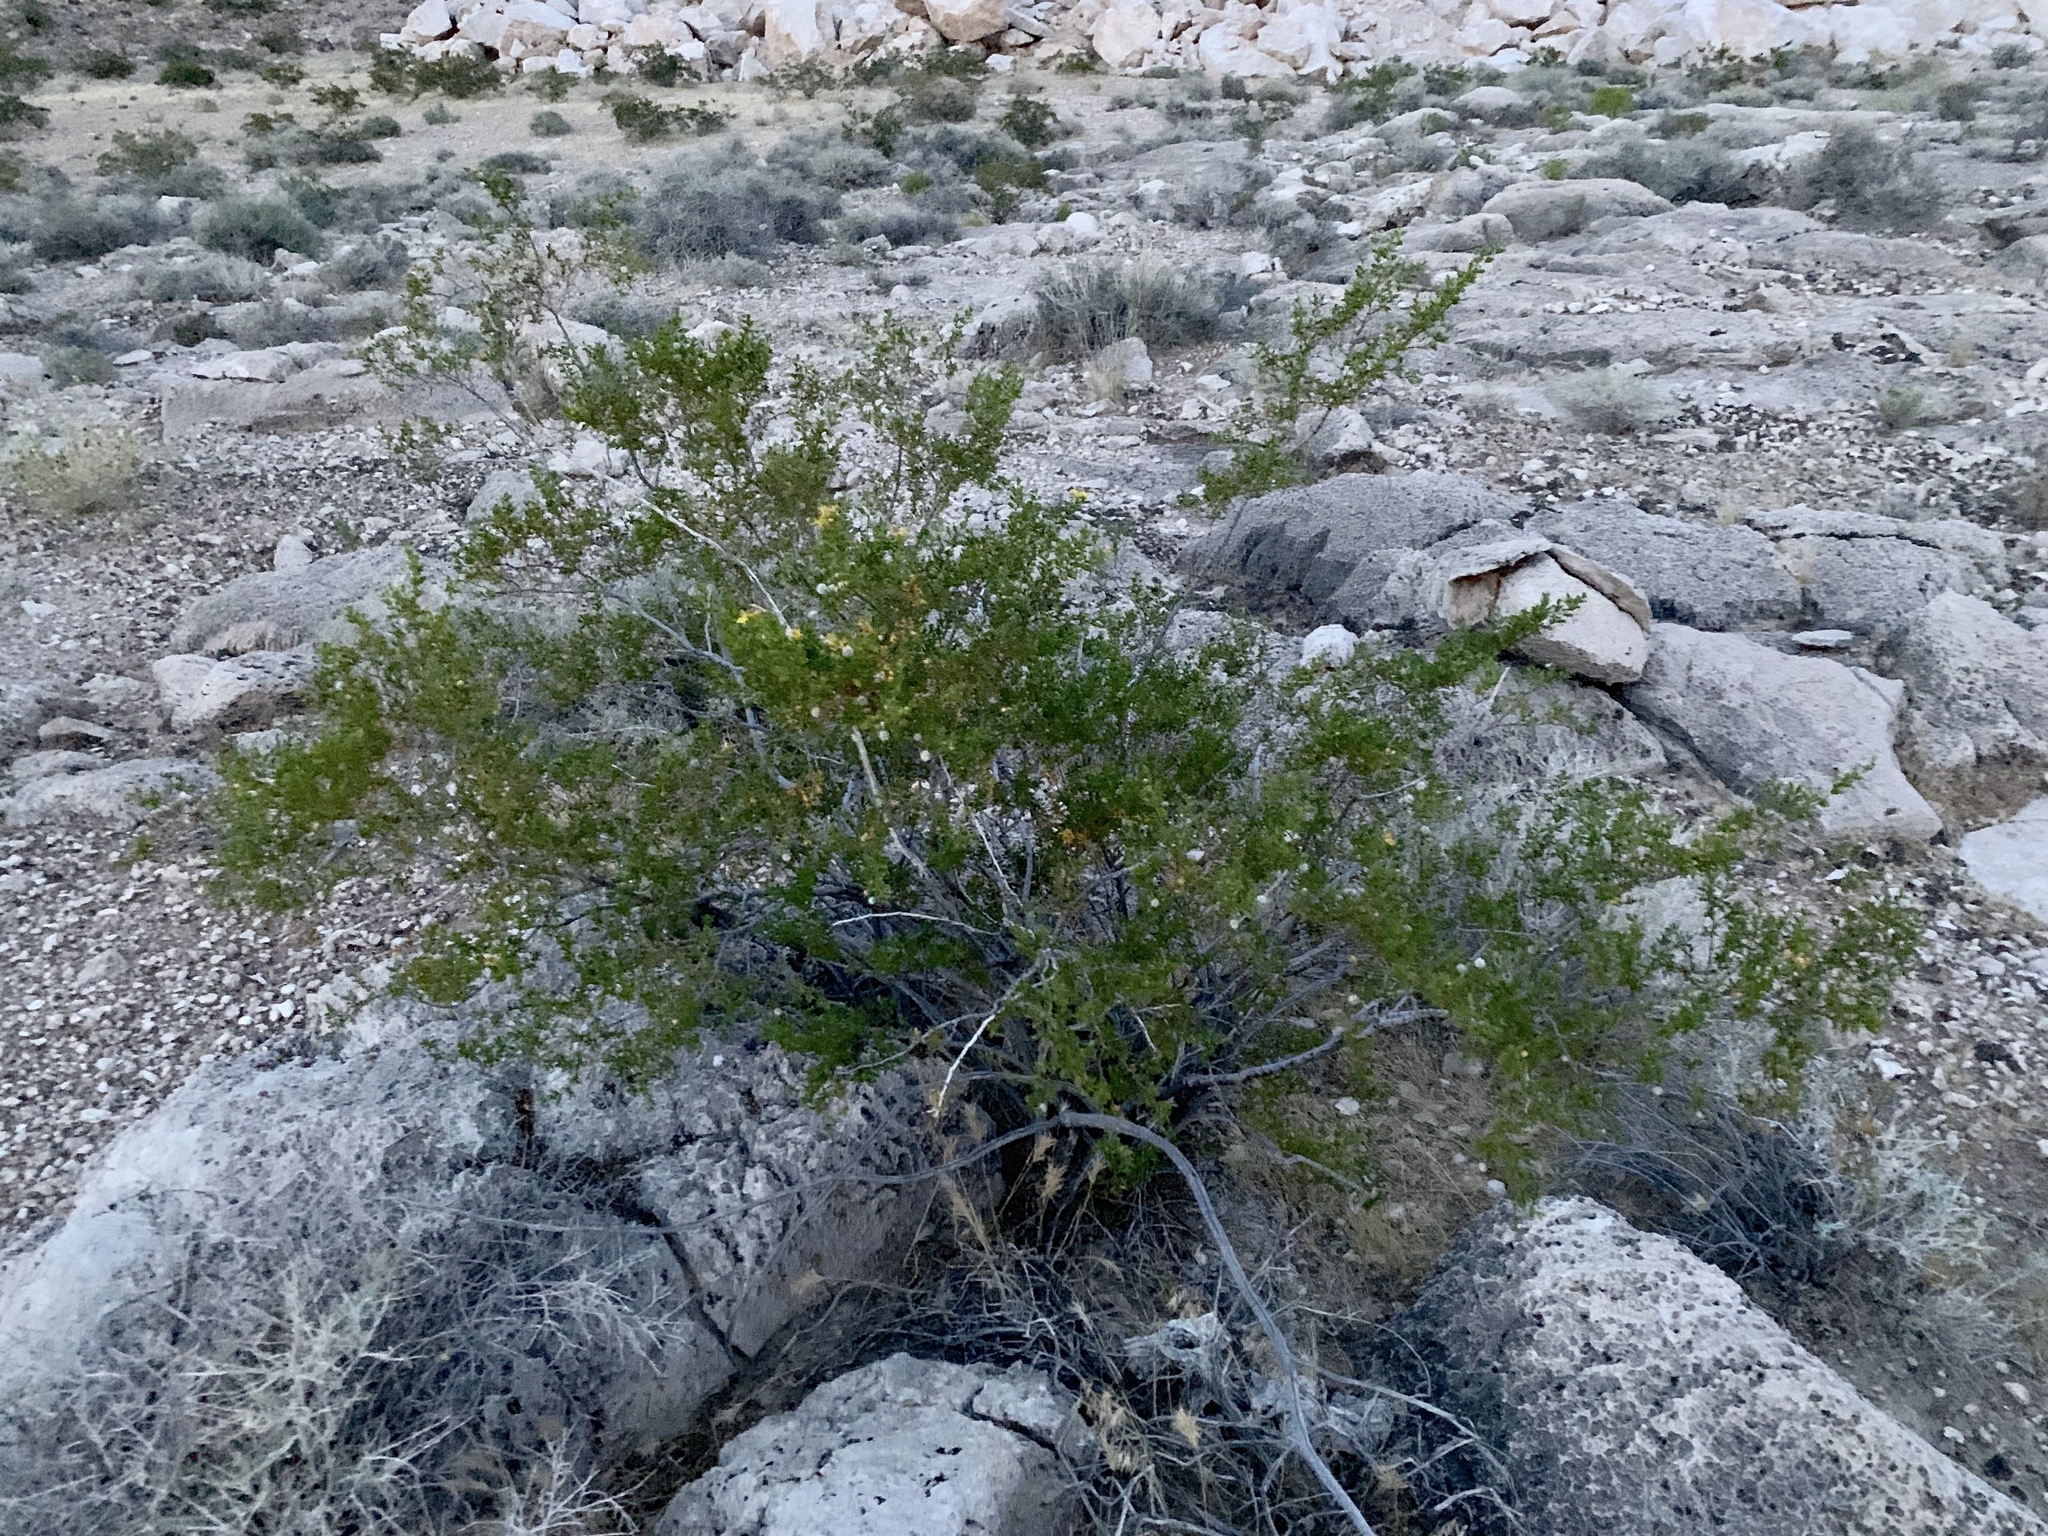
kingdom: Plantae
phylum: Tracheophyta
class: Magnoliopsida
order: Zygophyllales
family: Zygophyllaceae
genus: Larrea
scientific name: Larrea tridentata
